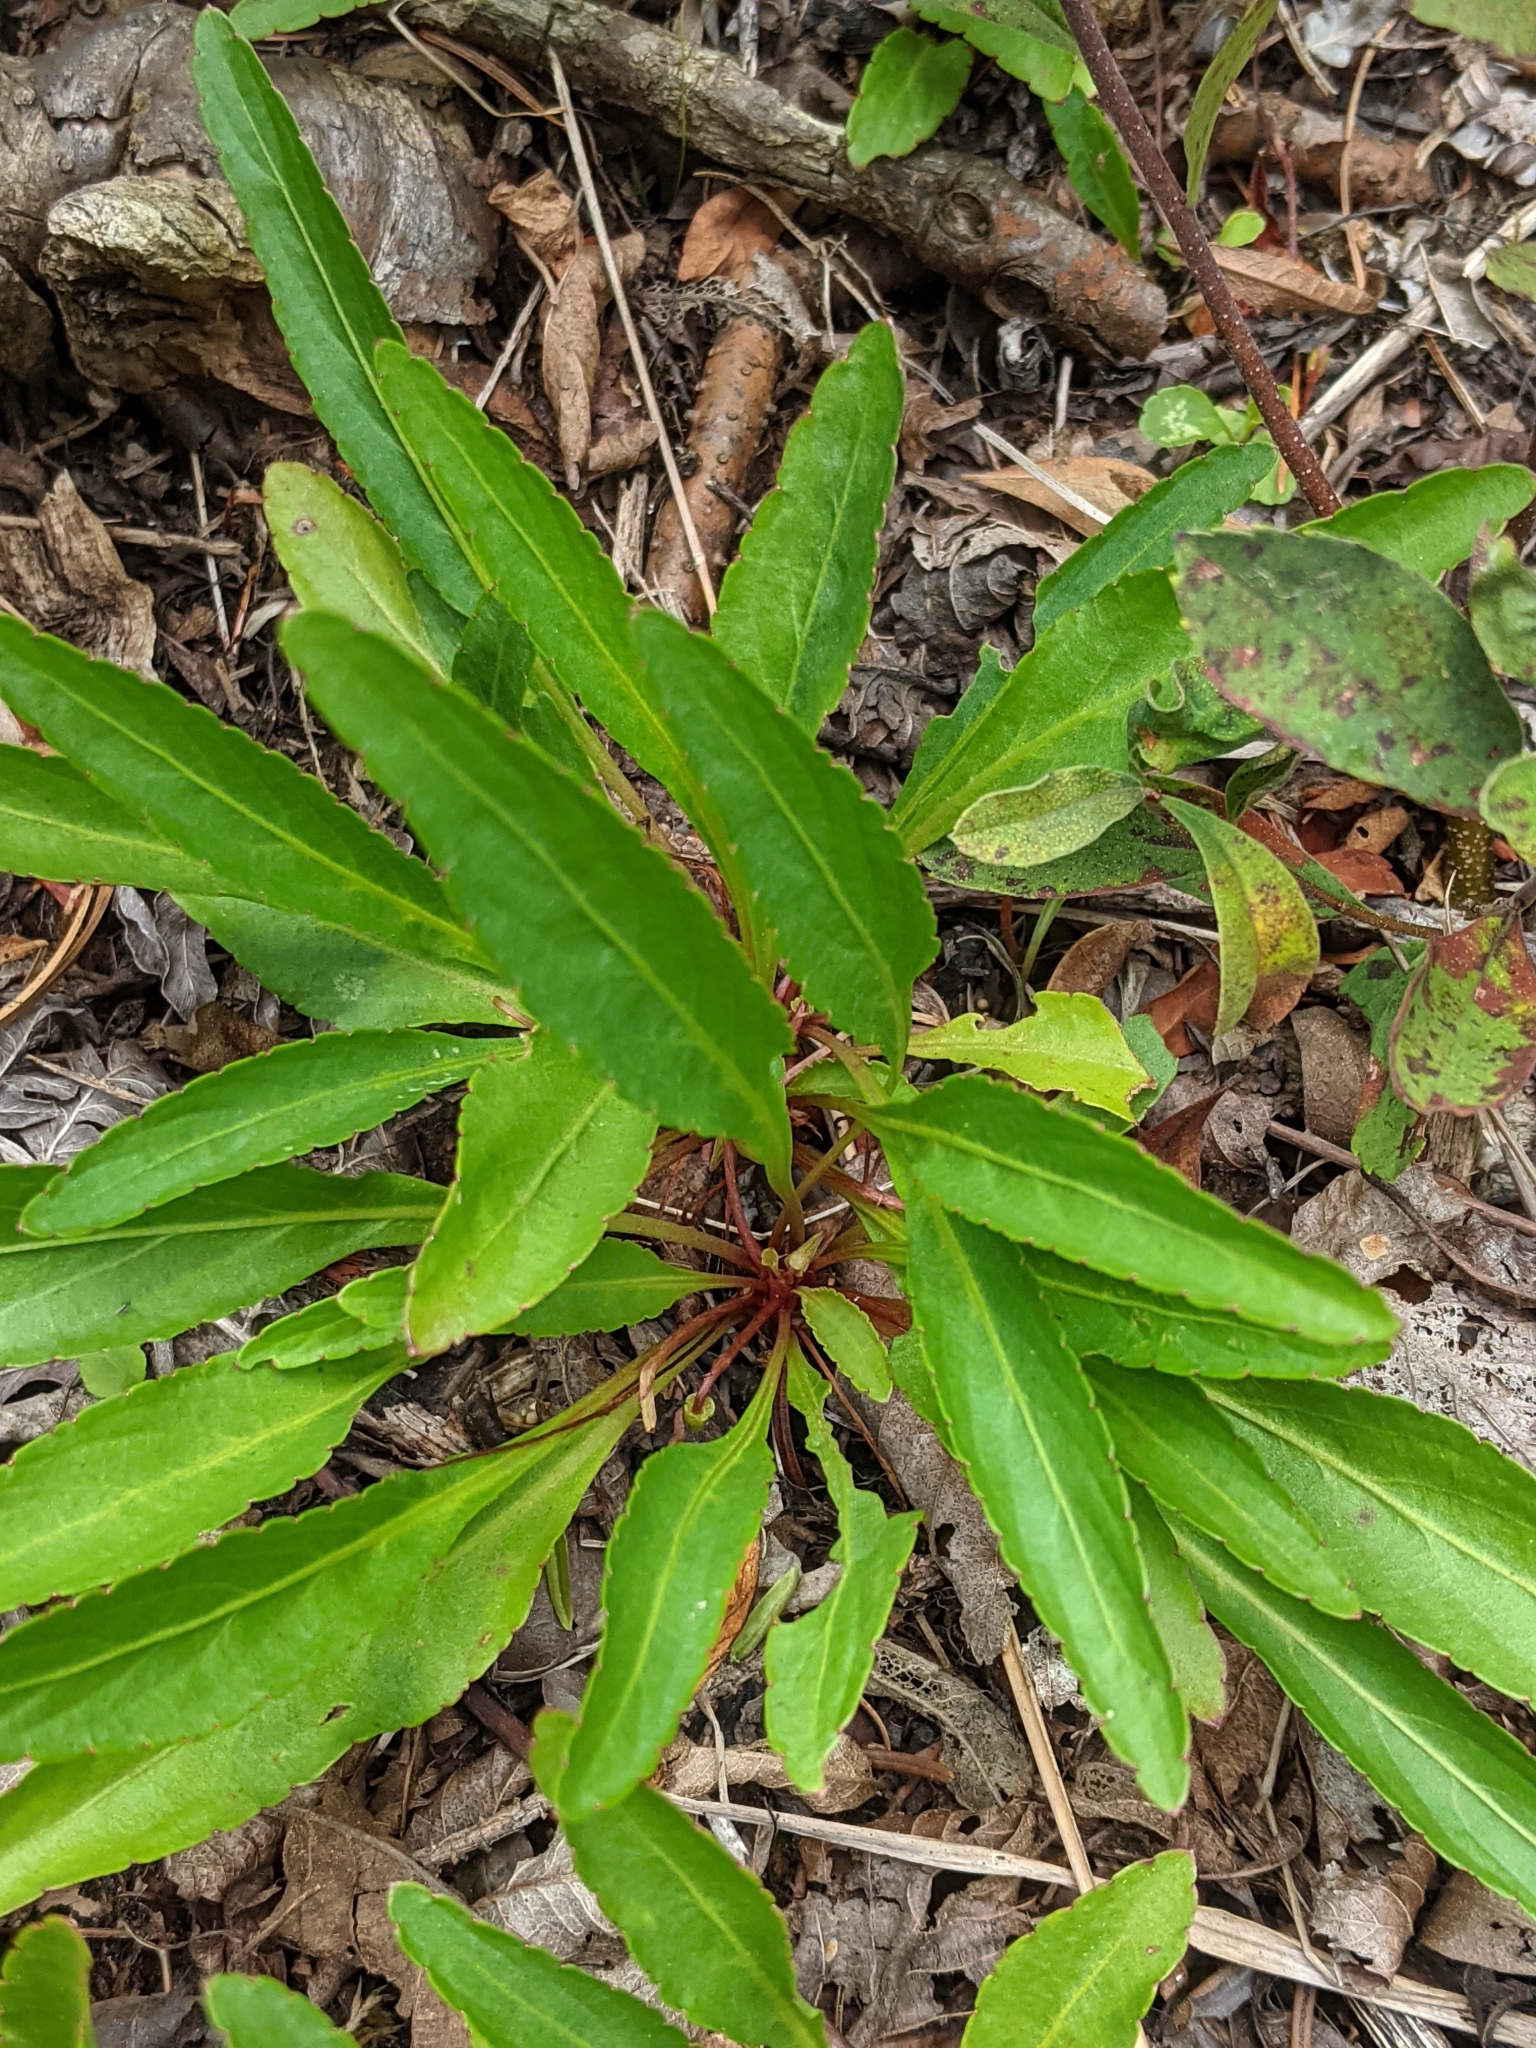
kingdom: Plantae
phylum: Tracheophyta
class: Magnoliopsida
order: Malpighiales
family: Violaceae
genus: Viola
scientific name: Viola lanceolata
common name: Bog white violet
